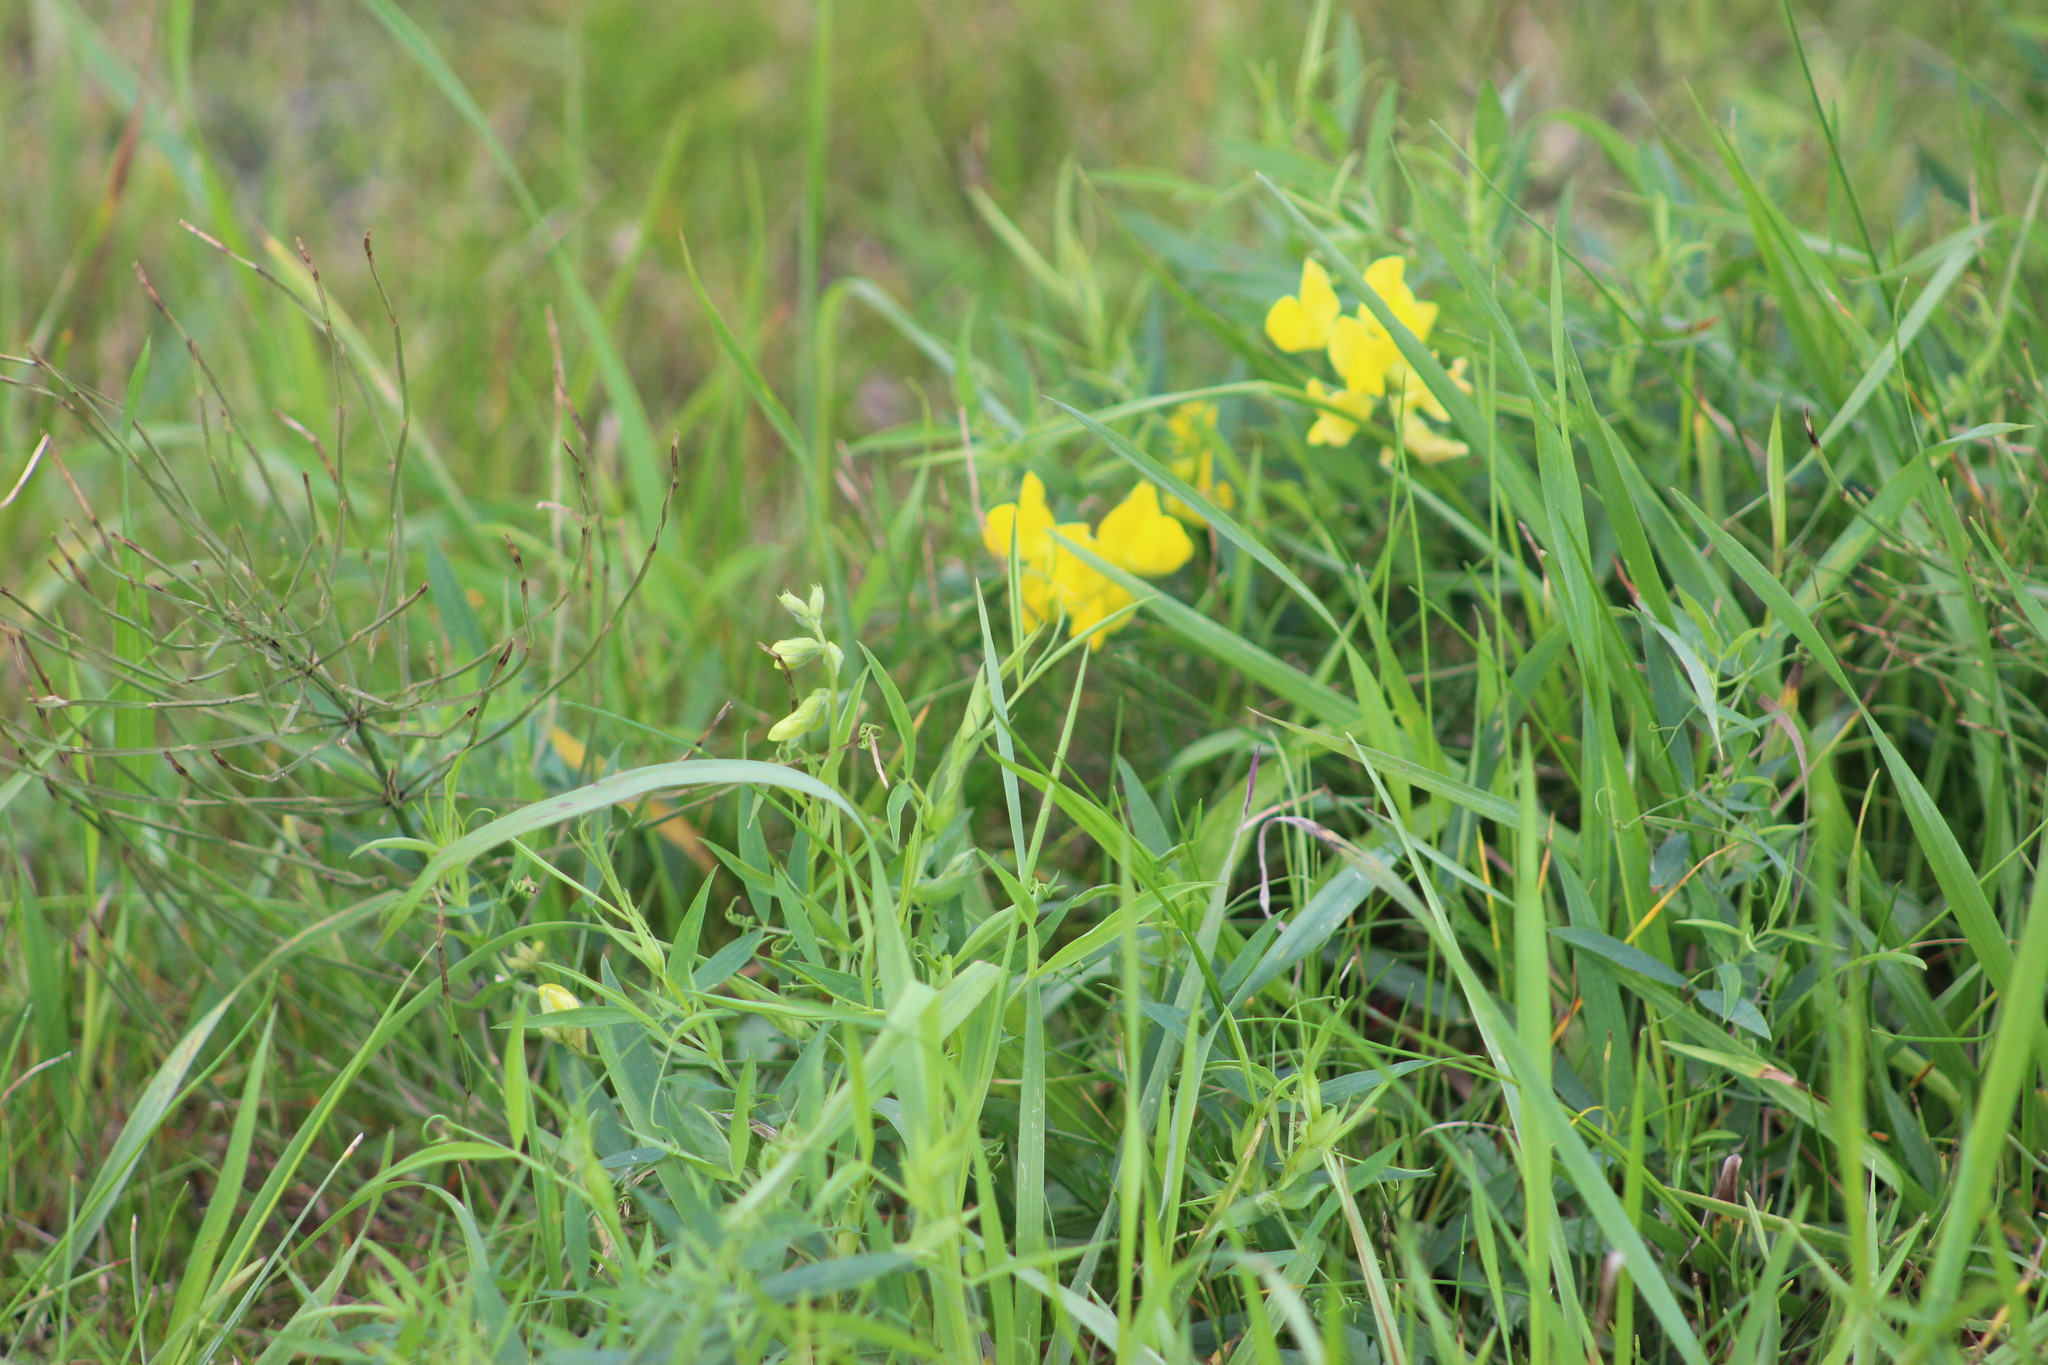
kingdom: Plantae
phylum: Tracheophyta
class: Magnoliopsida
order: Fabales
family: Fabaceae
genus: Lathyrus
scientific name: Lathyrus pratensis
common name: Meadow vetchling
